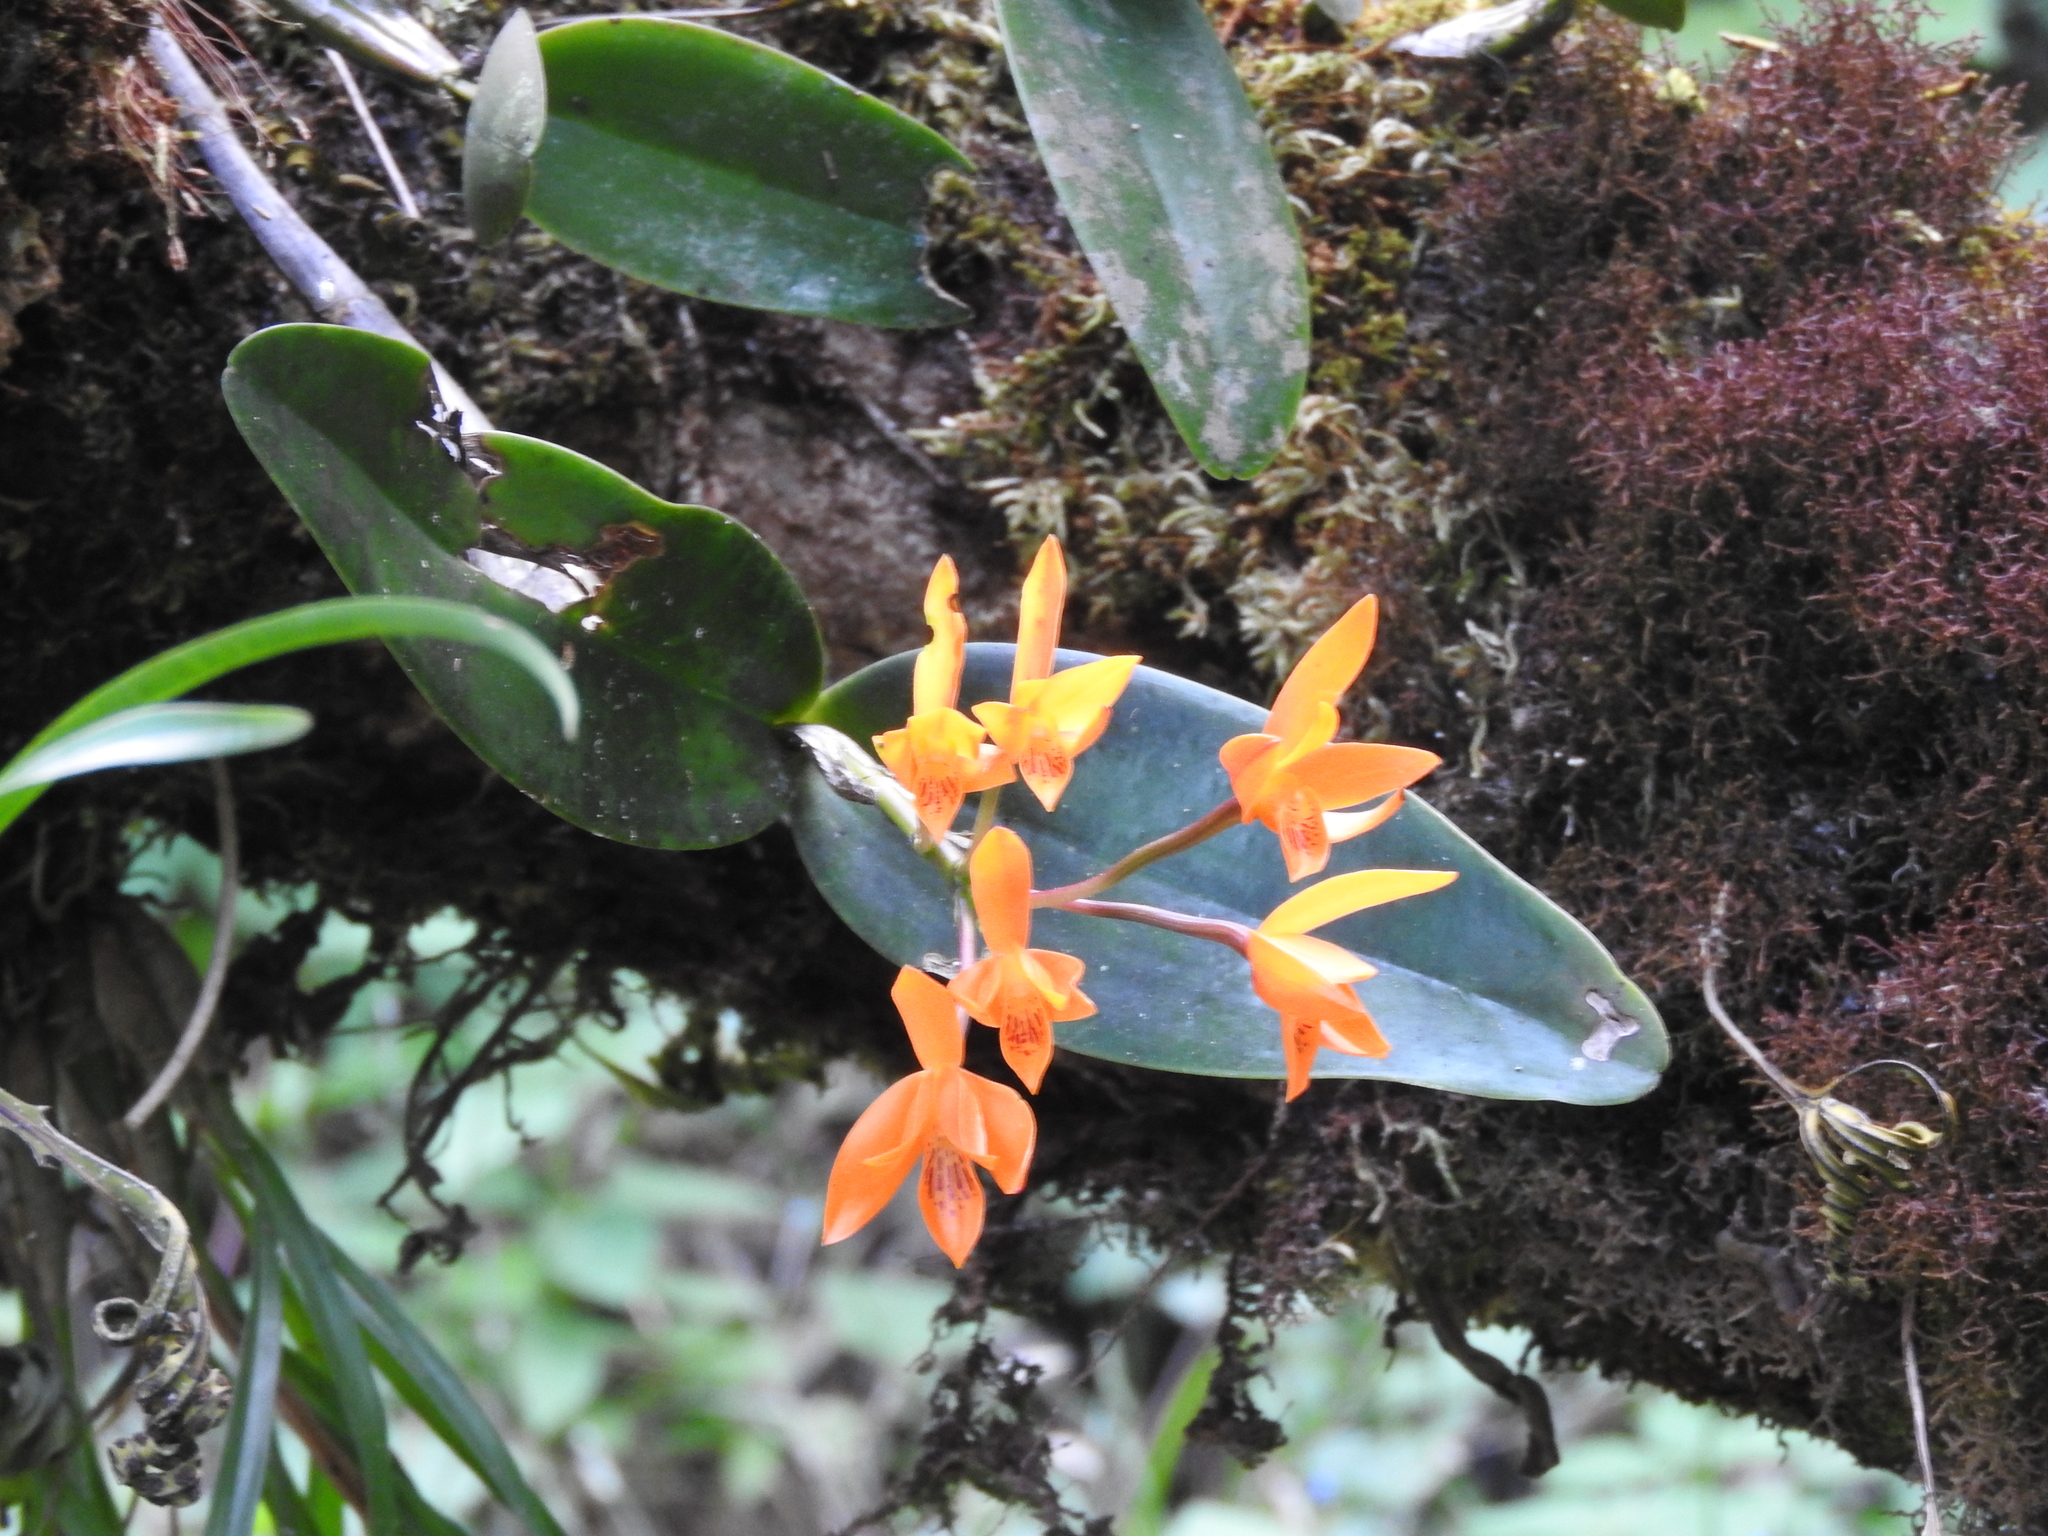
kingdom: Plantae
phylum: Tracheophyta
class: Liliopsida
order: Asparagales
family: Orchidaceae
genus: Guarianthe
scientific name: Guarianthe aurantiaca
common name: Orange cattleya
